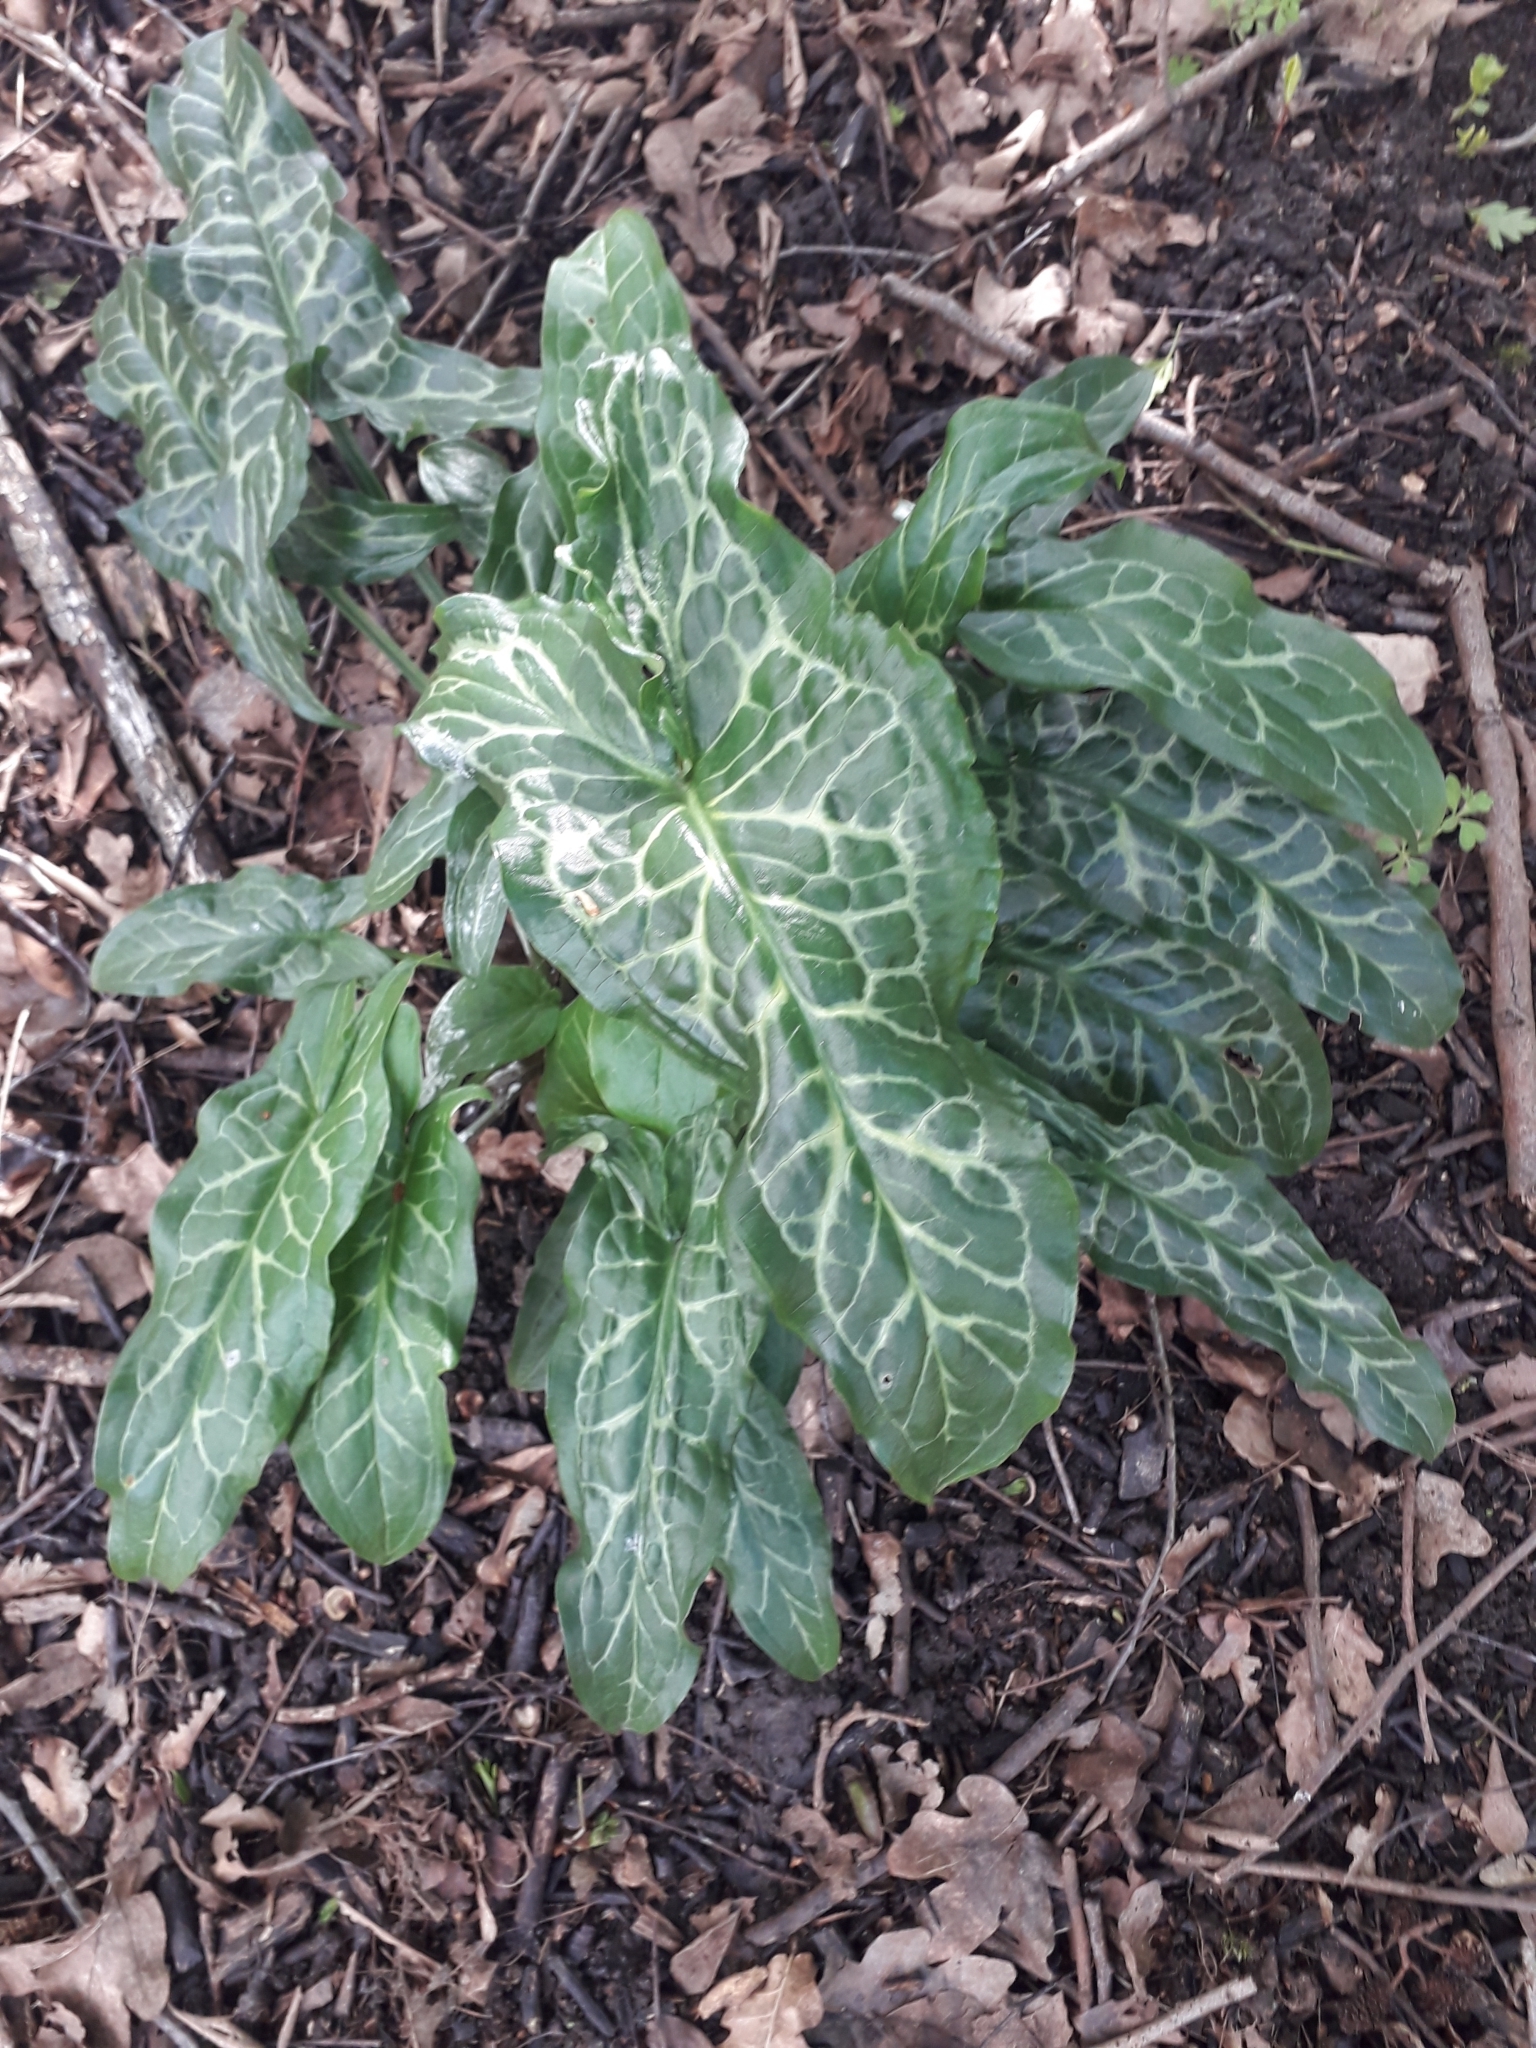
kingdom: Plantae
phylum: Tracheophyta
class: Liliopsida
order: Alismatales
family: Araceae
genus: Arum
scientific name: Arum italicum
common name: Italian lords-and-ladies
